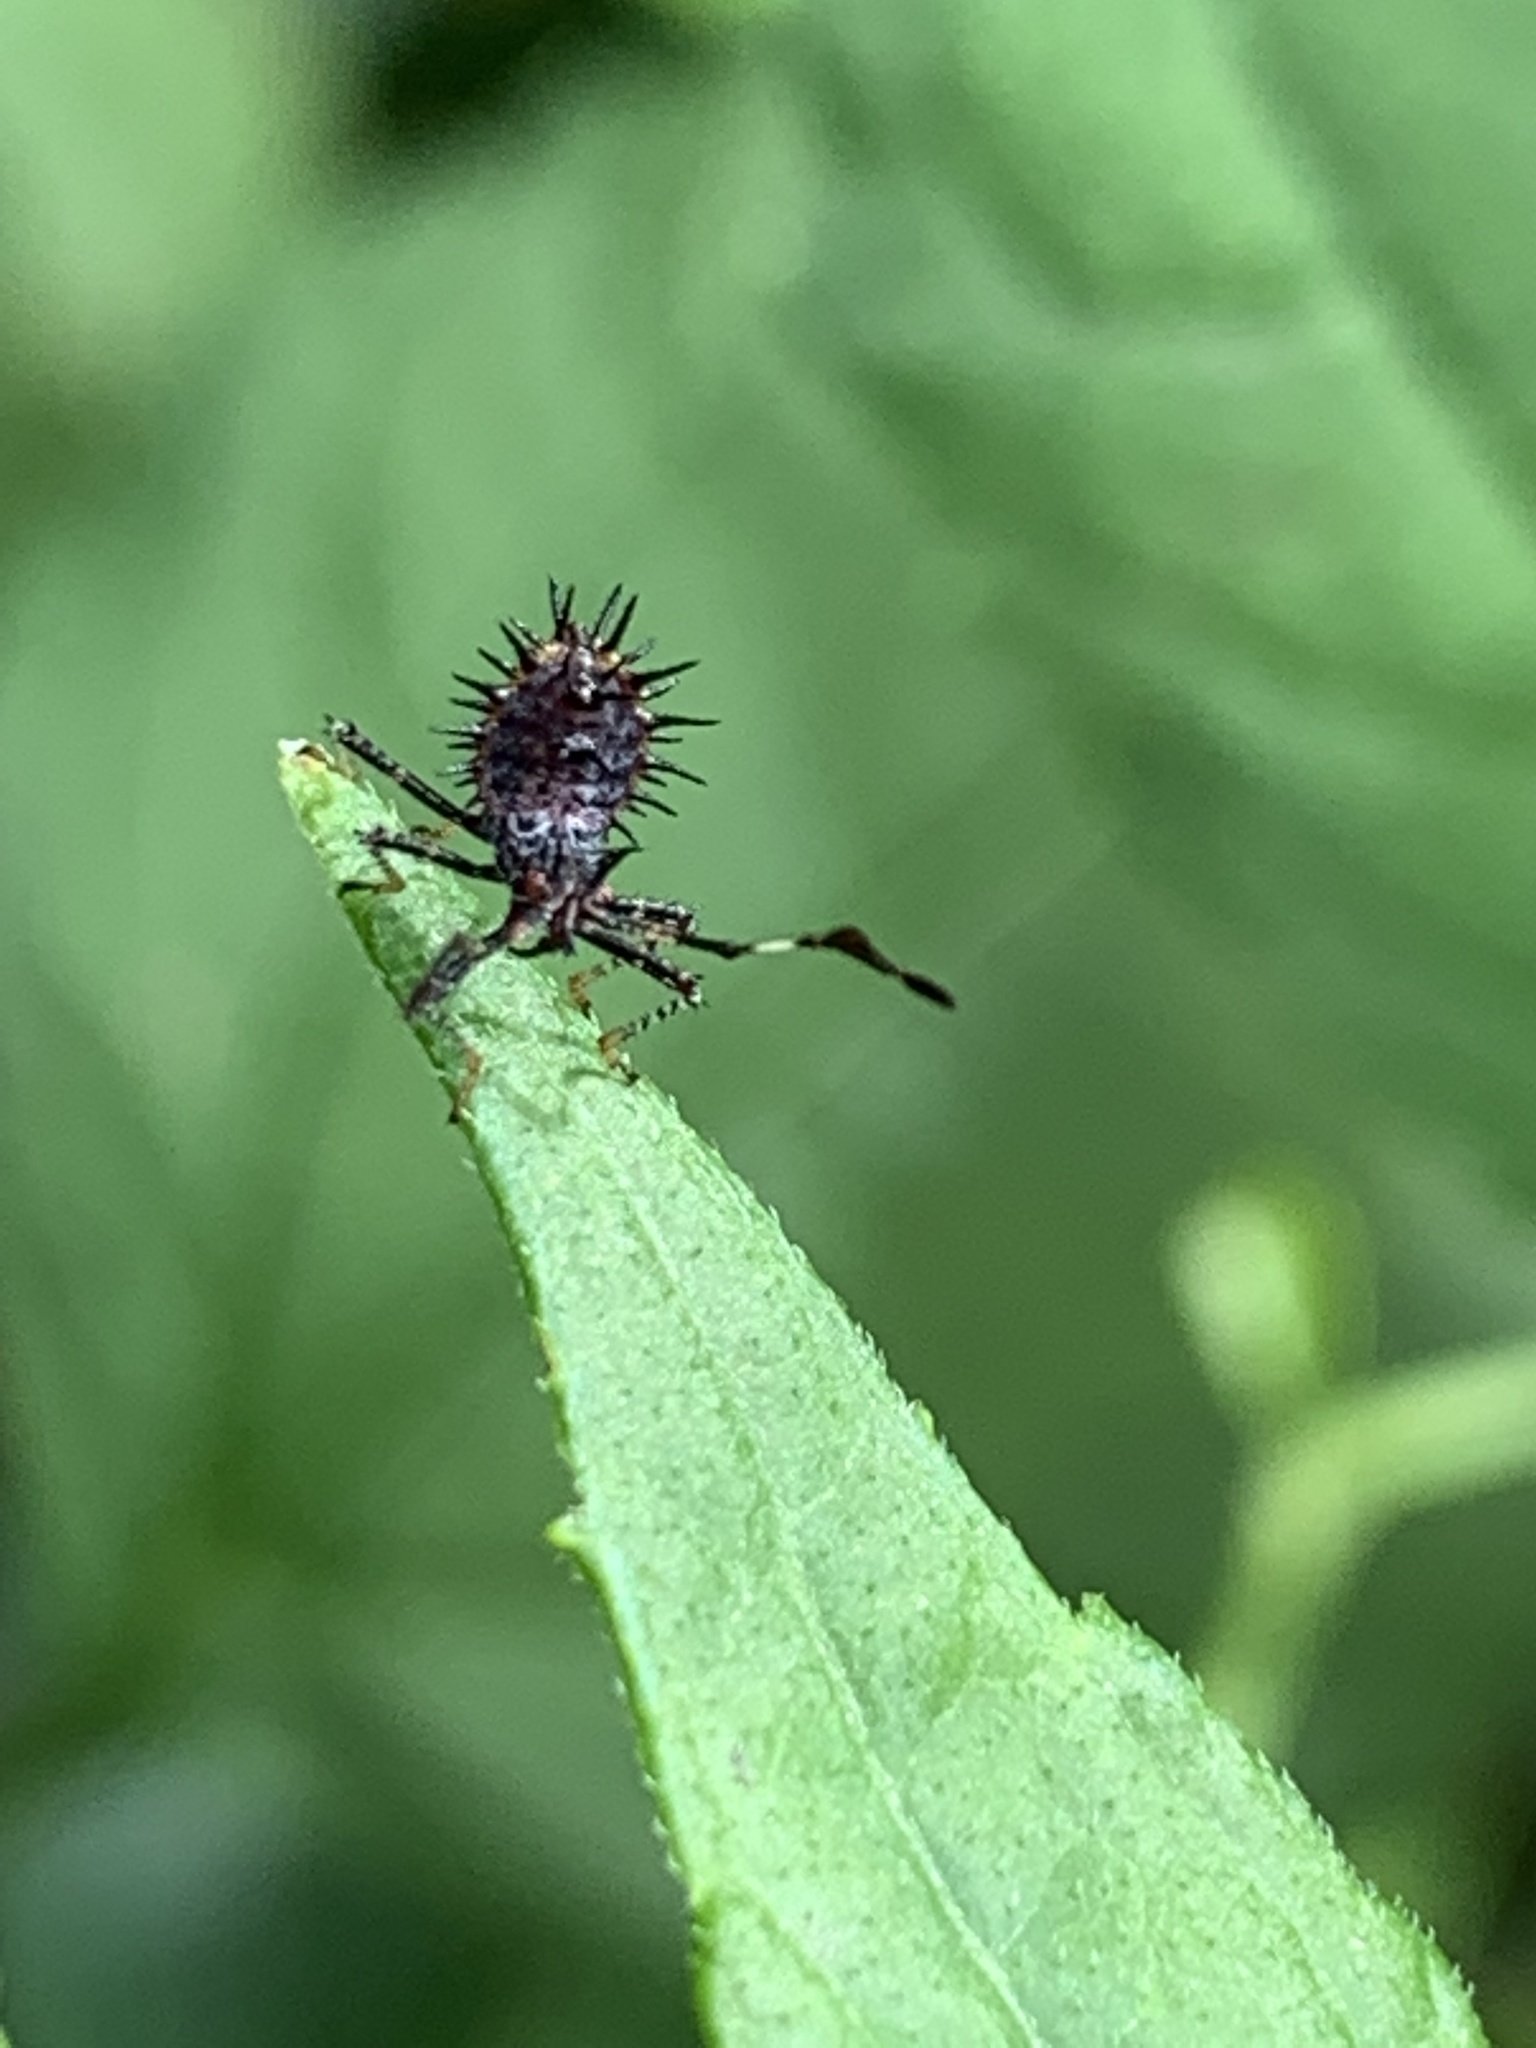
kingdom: Animalia
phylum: Arthropoda
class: Insecta
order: Hemiptera
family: Coreidae
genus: Euthochtha
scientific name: Euthochtha galeator
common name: Helmeted squash bug
